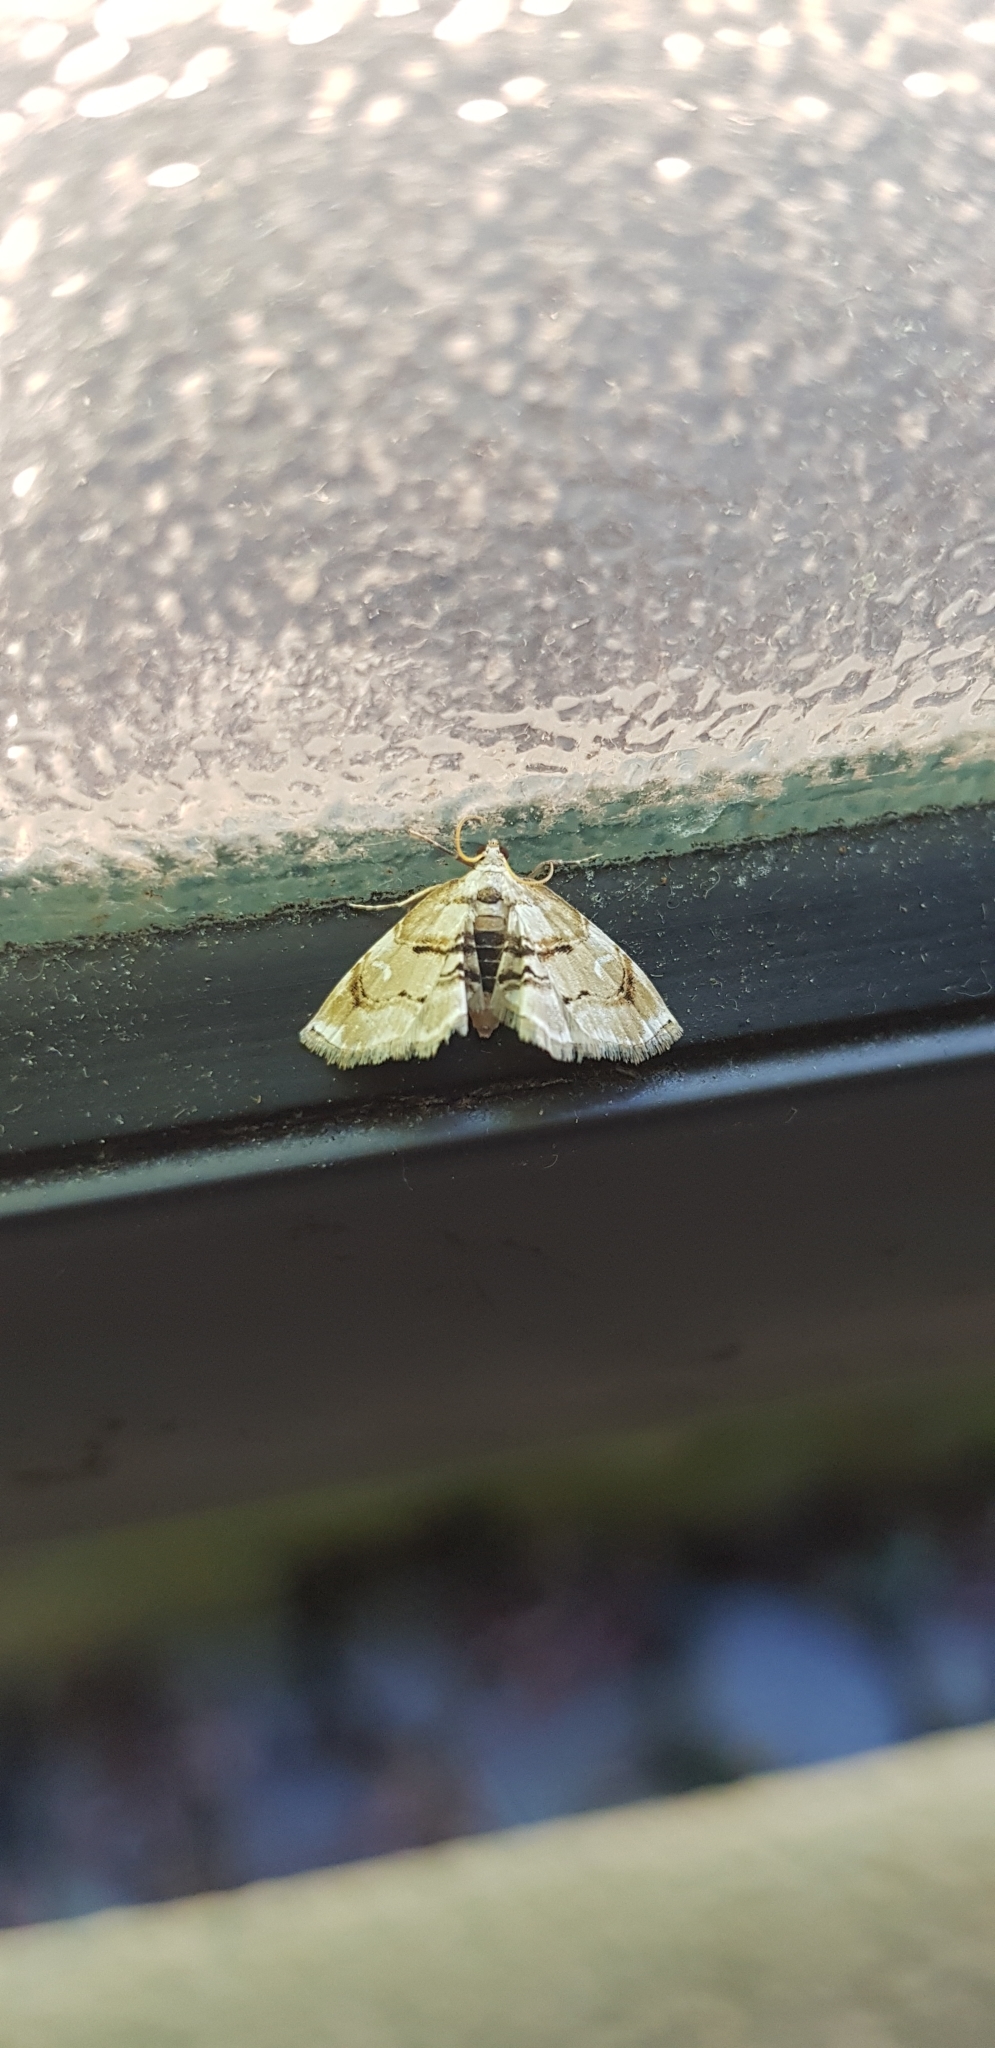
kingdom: Animalia
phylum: Arthropoda
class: Insecta
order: Lepidoptera
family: Crambidae
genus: Trichophysetis
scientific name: Trichophysetis
